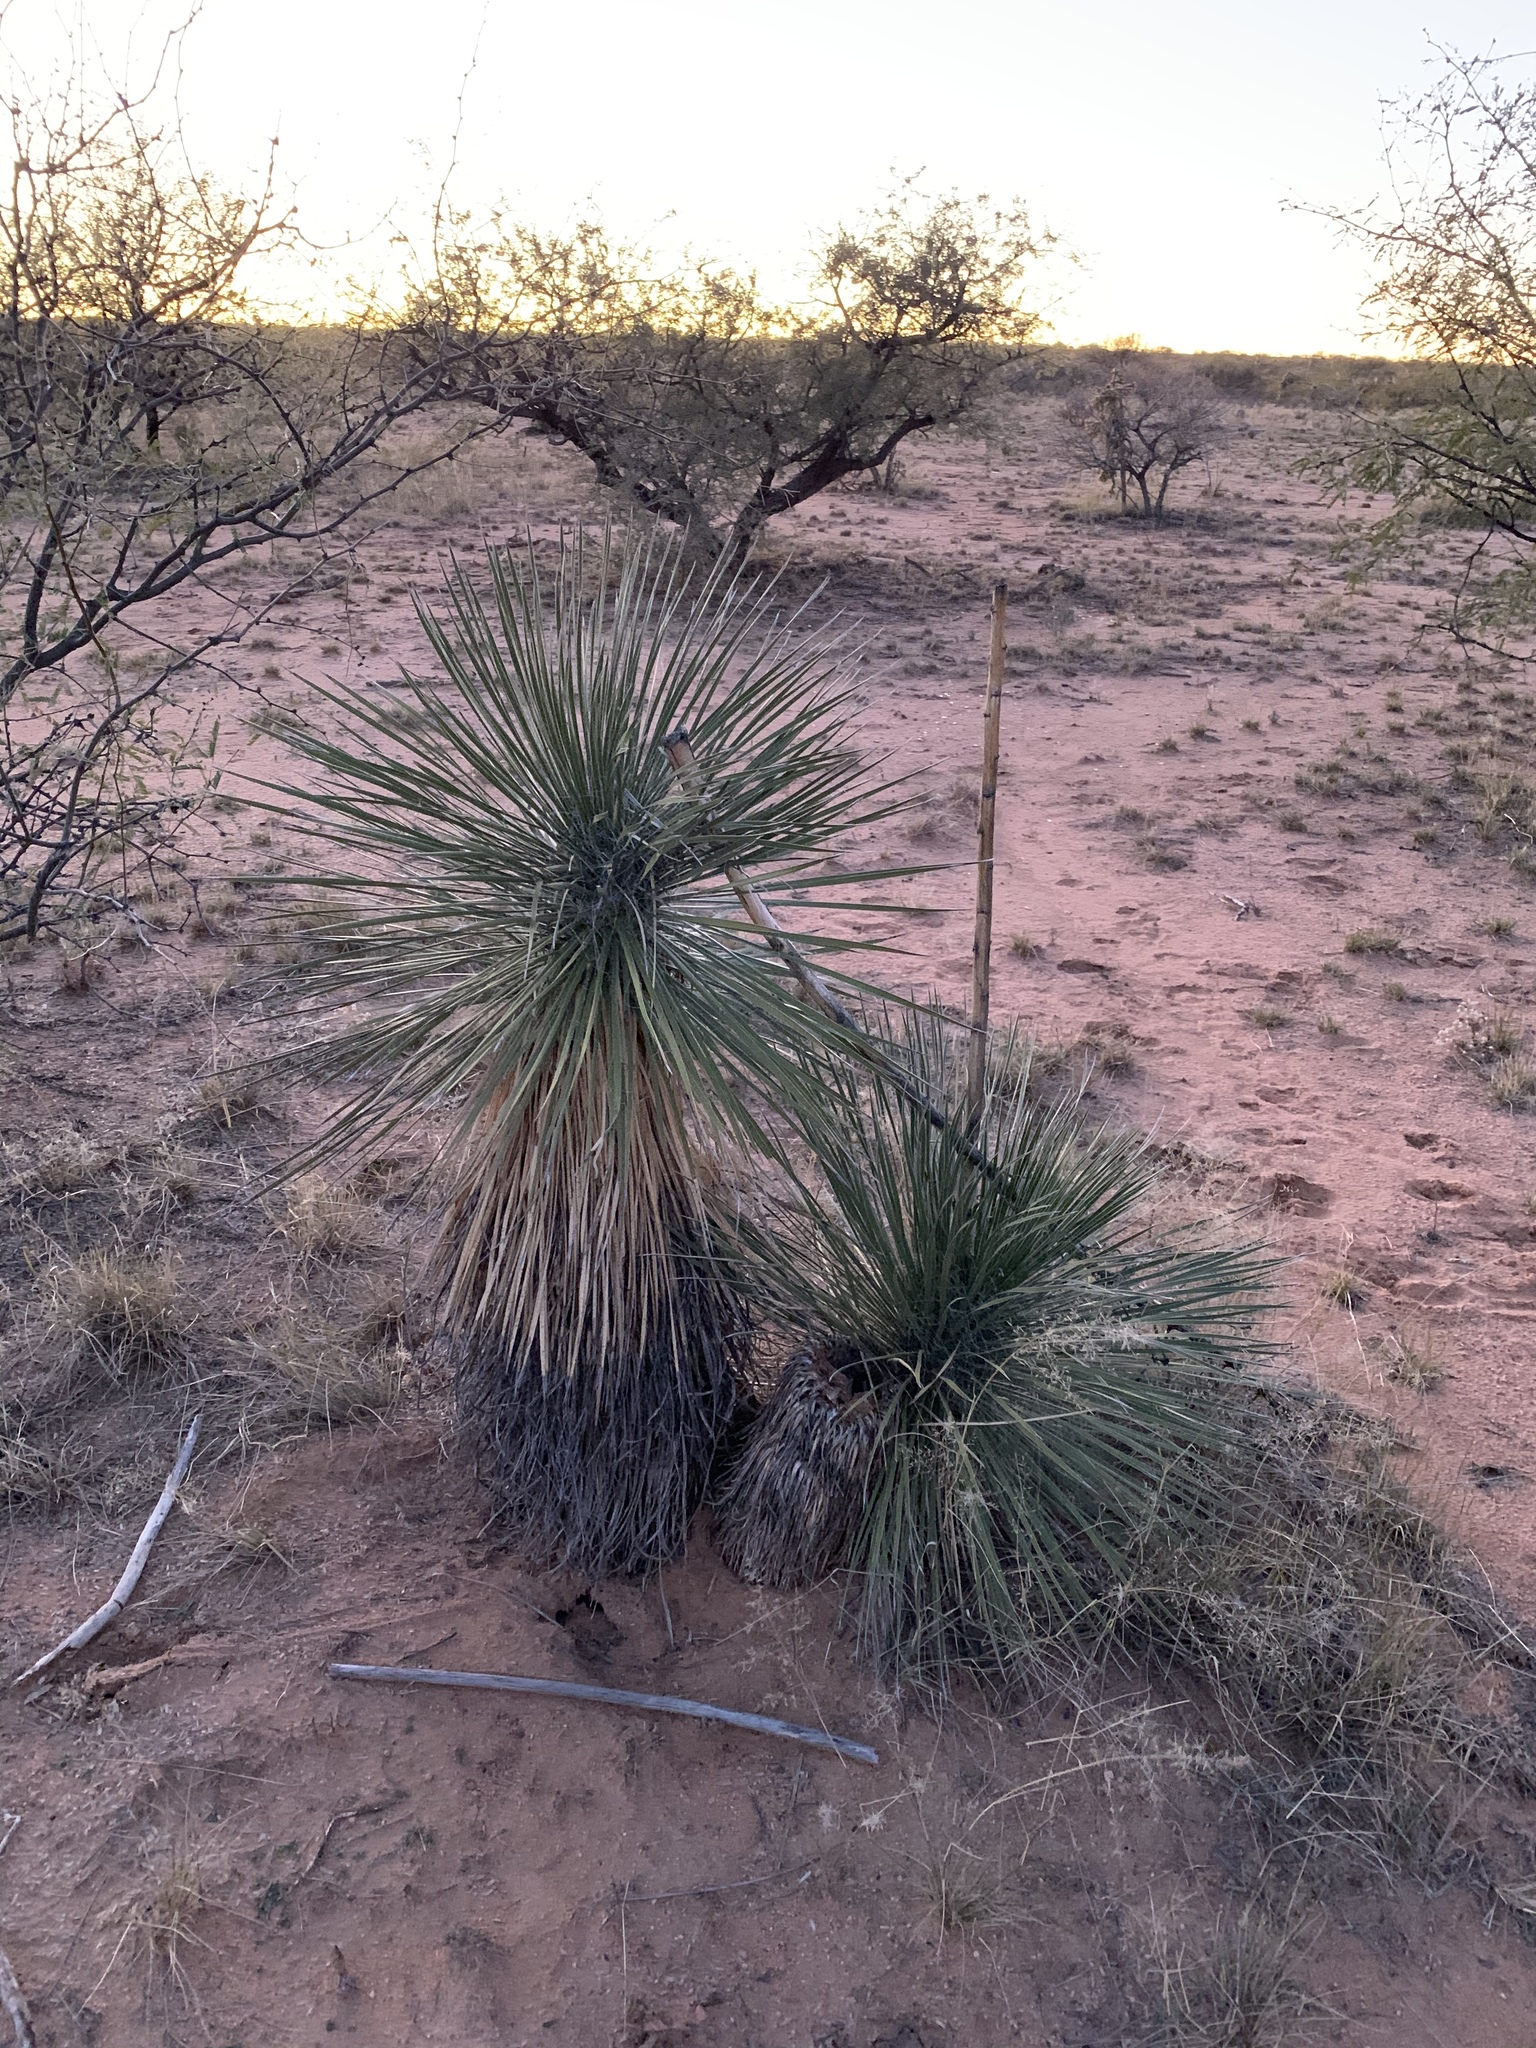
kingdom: Plantae
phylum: Tracheophyta
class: Liliopsida
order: Asparagales
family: Asparagaceae
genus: Yucca
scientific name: Yucca elata
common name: Palmella
